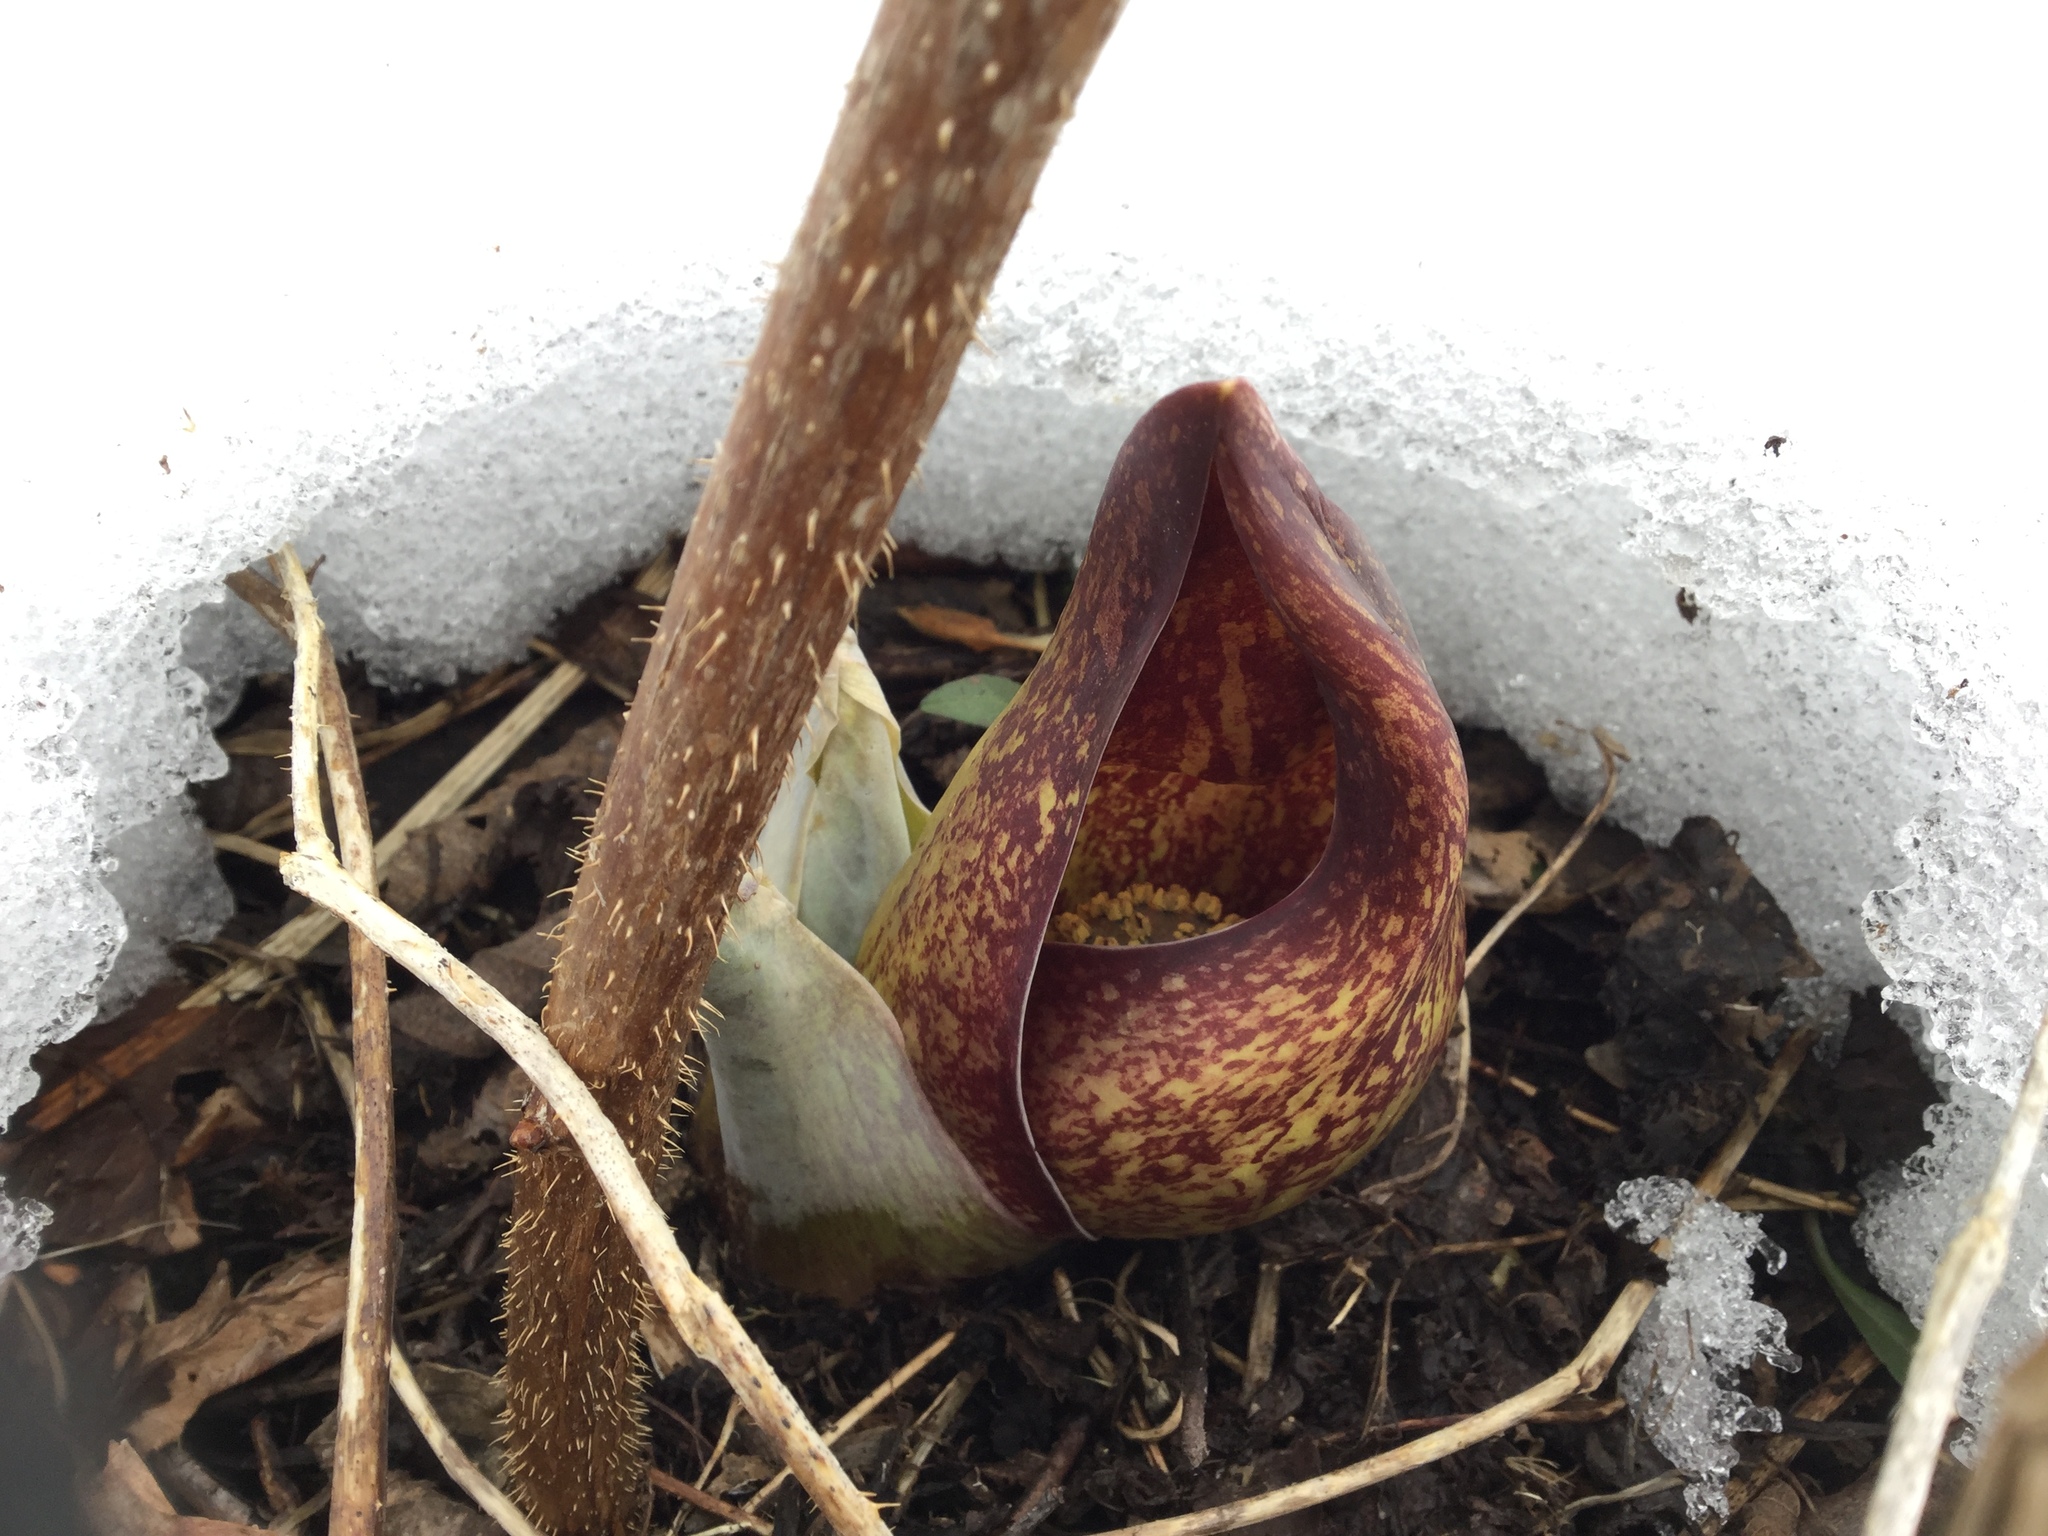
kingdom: Plantae
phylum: Tracheophyta
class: Liliopsida
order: Alismatales
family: Araceae
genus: Symplocarpus
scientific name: Symplocarpus foetidus
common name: Eastern skunk cabbage
